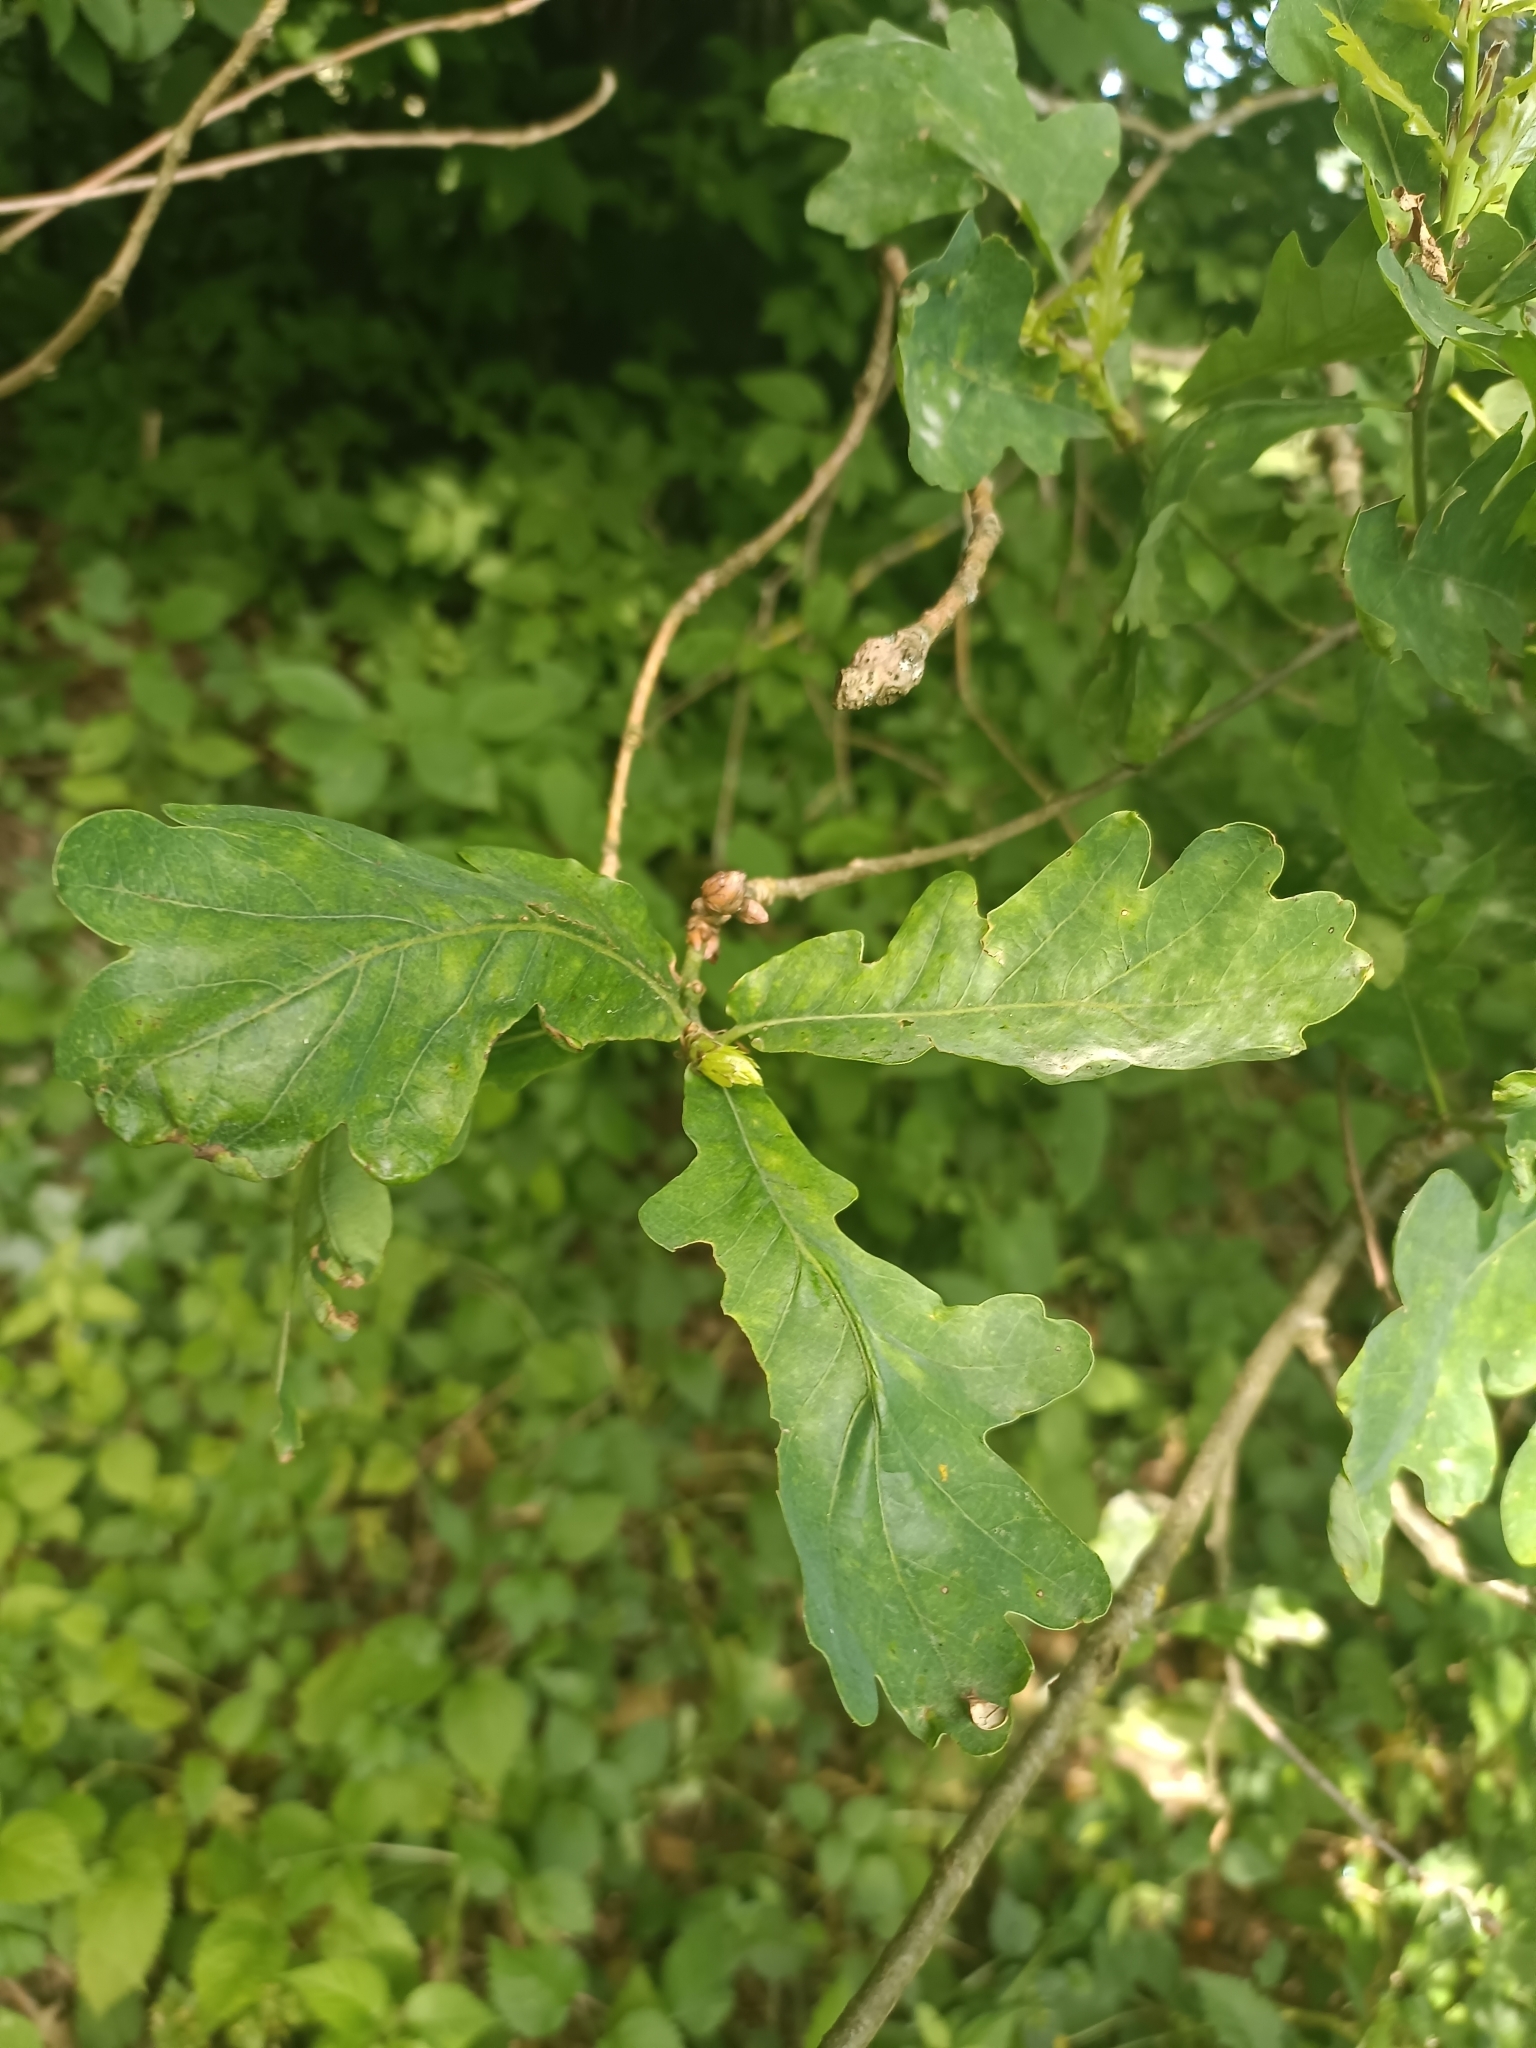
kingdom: Plantae
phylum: Tracheophyta
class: Magnoliopsida
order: Fagales
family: Fagaceae
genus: Quercus
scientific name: Quercus robur
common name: Pedunculate oak
